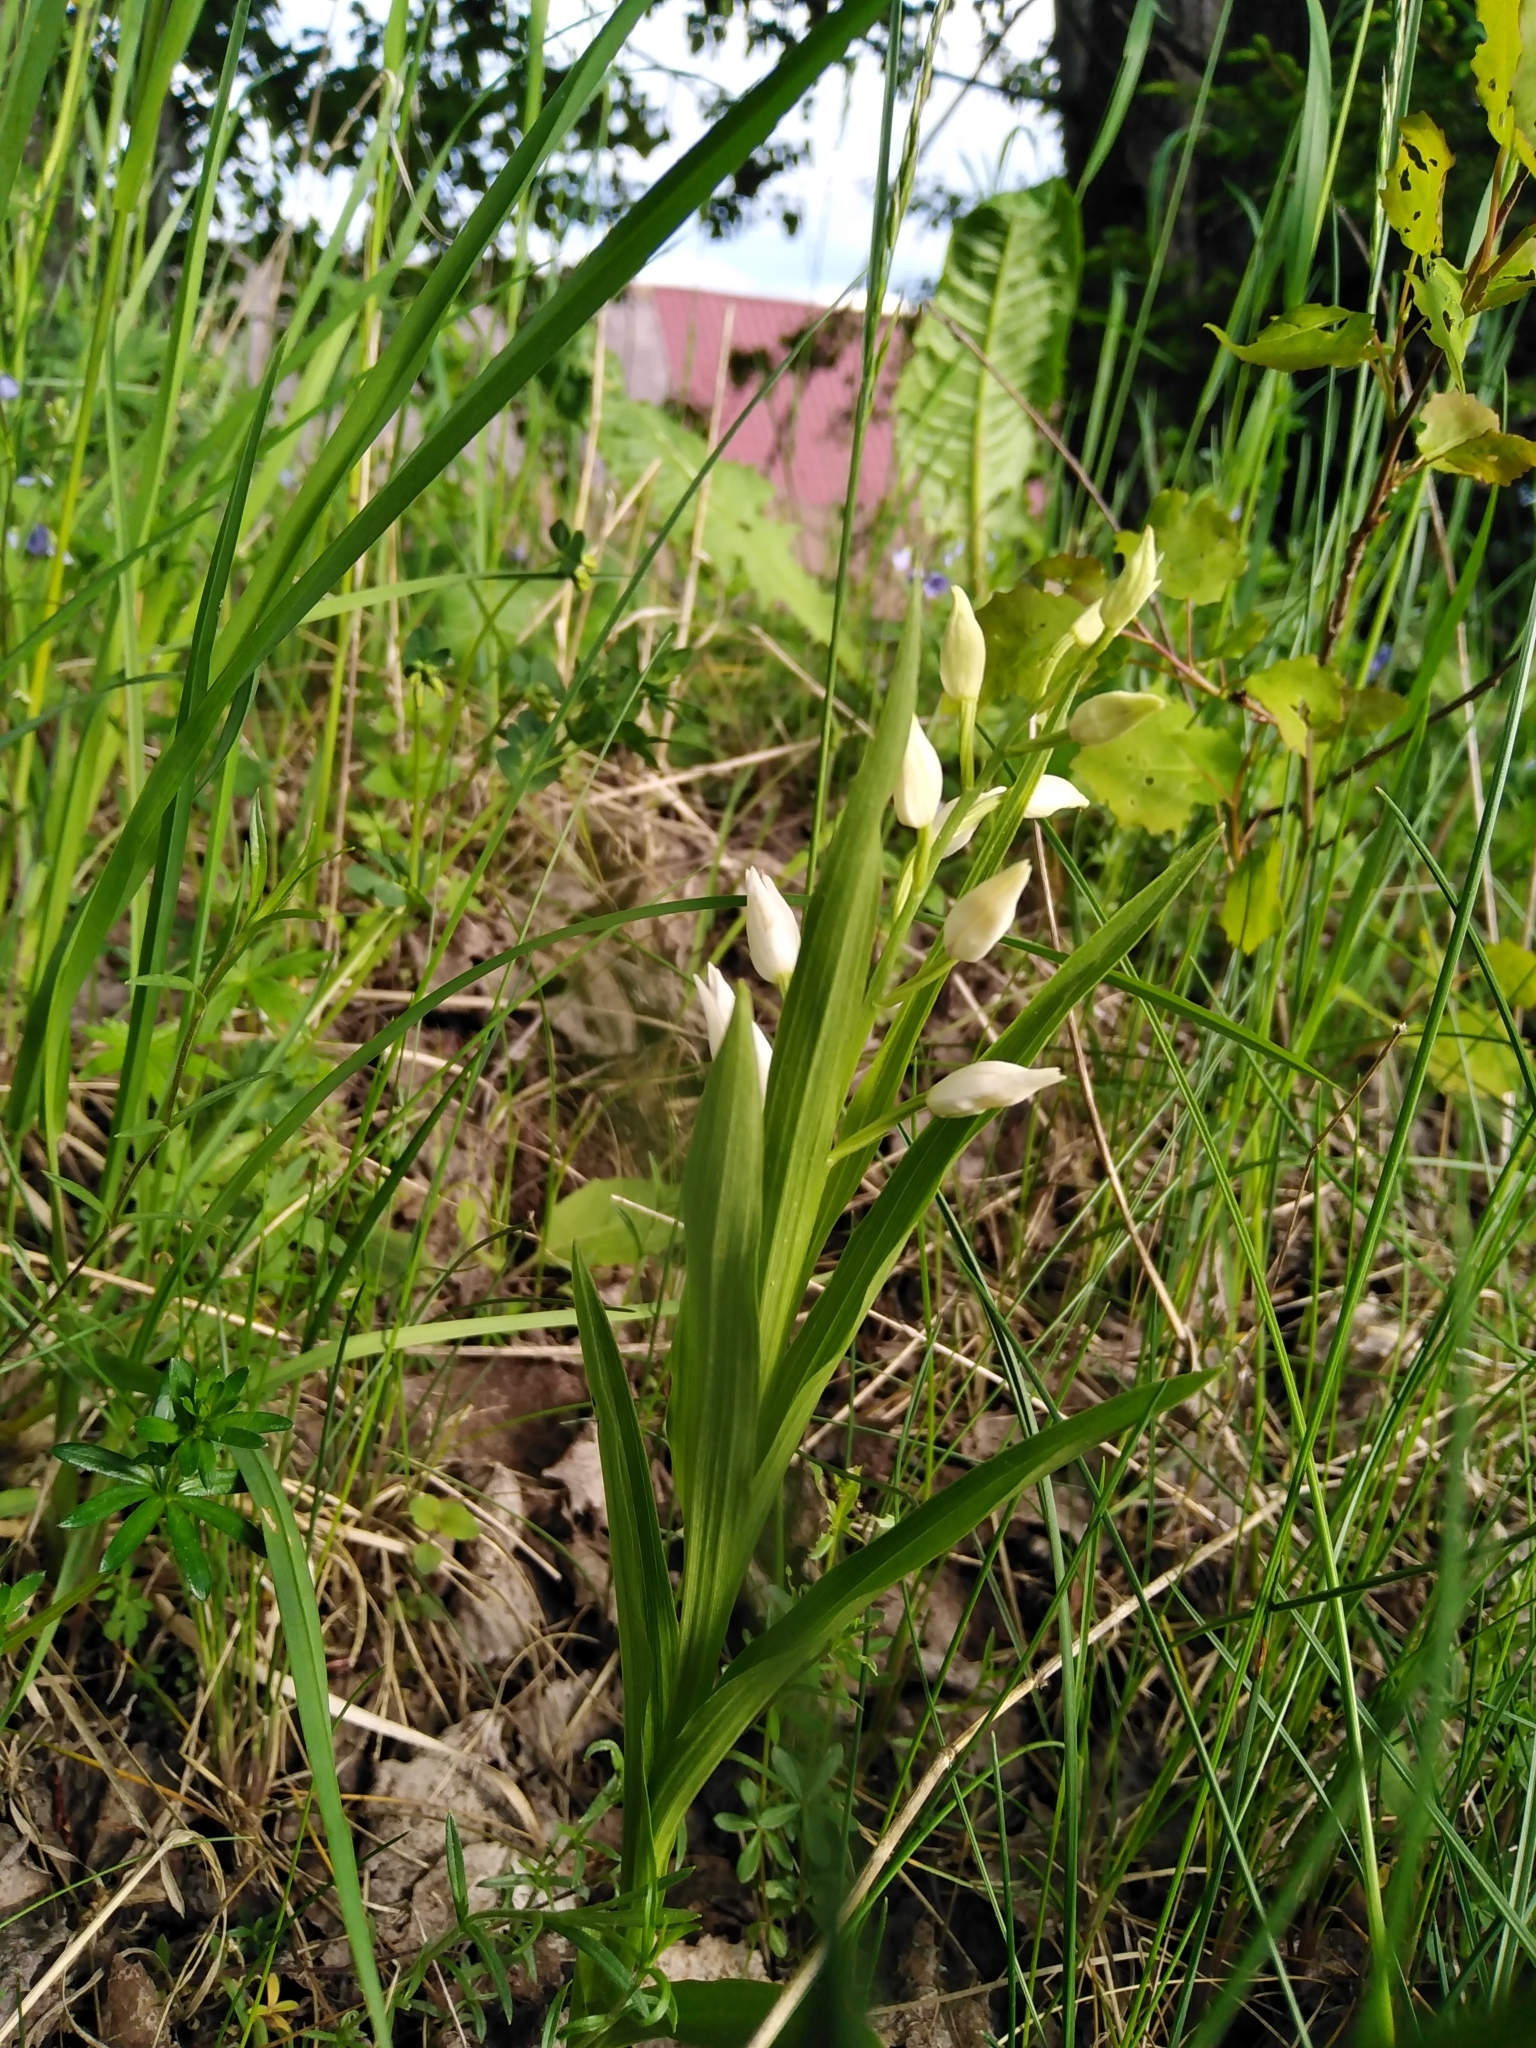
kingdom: Plantae
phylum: Tracheophyta
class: Liliopsida
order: Asparagales
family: Orchidaceae
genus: Cephalanthera
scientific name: Cephalanthera longifolia
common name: Narrow-leaved helleborine
